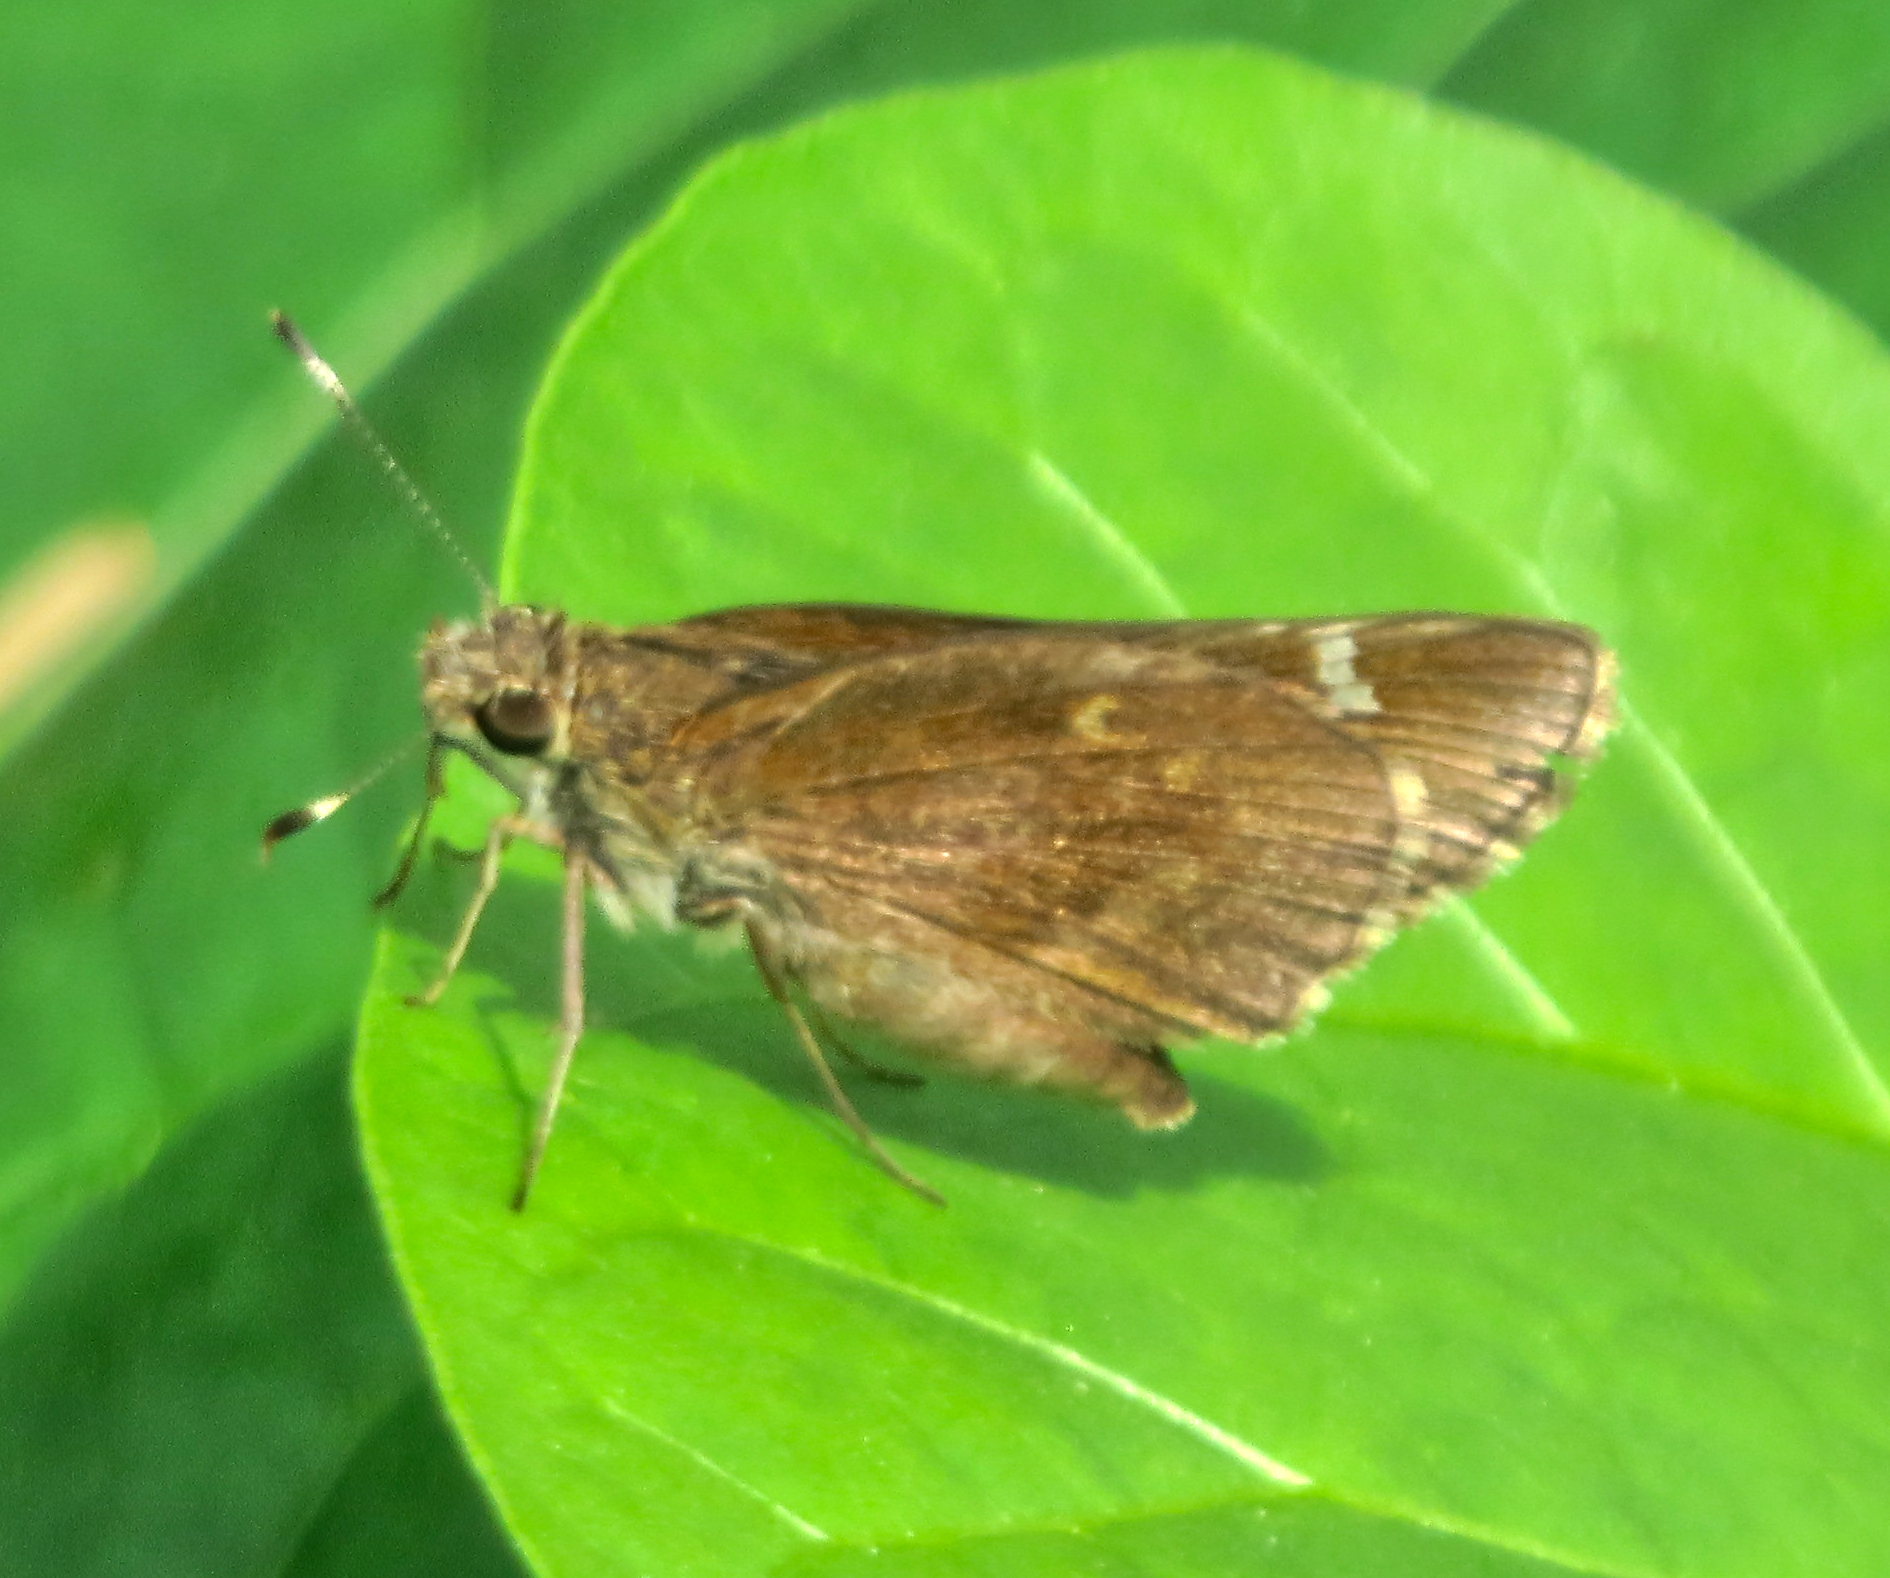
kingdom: Animalia
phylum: Arthropoda
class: Insecta
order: Lepidoptera
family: Hesperiidae
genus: Lerema
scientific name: Lerema accius
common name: Clouded skipper
